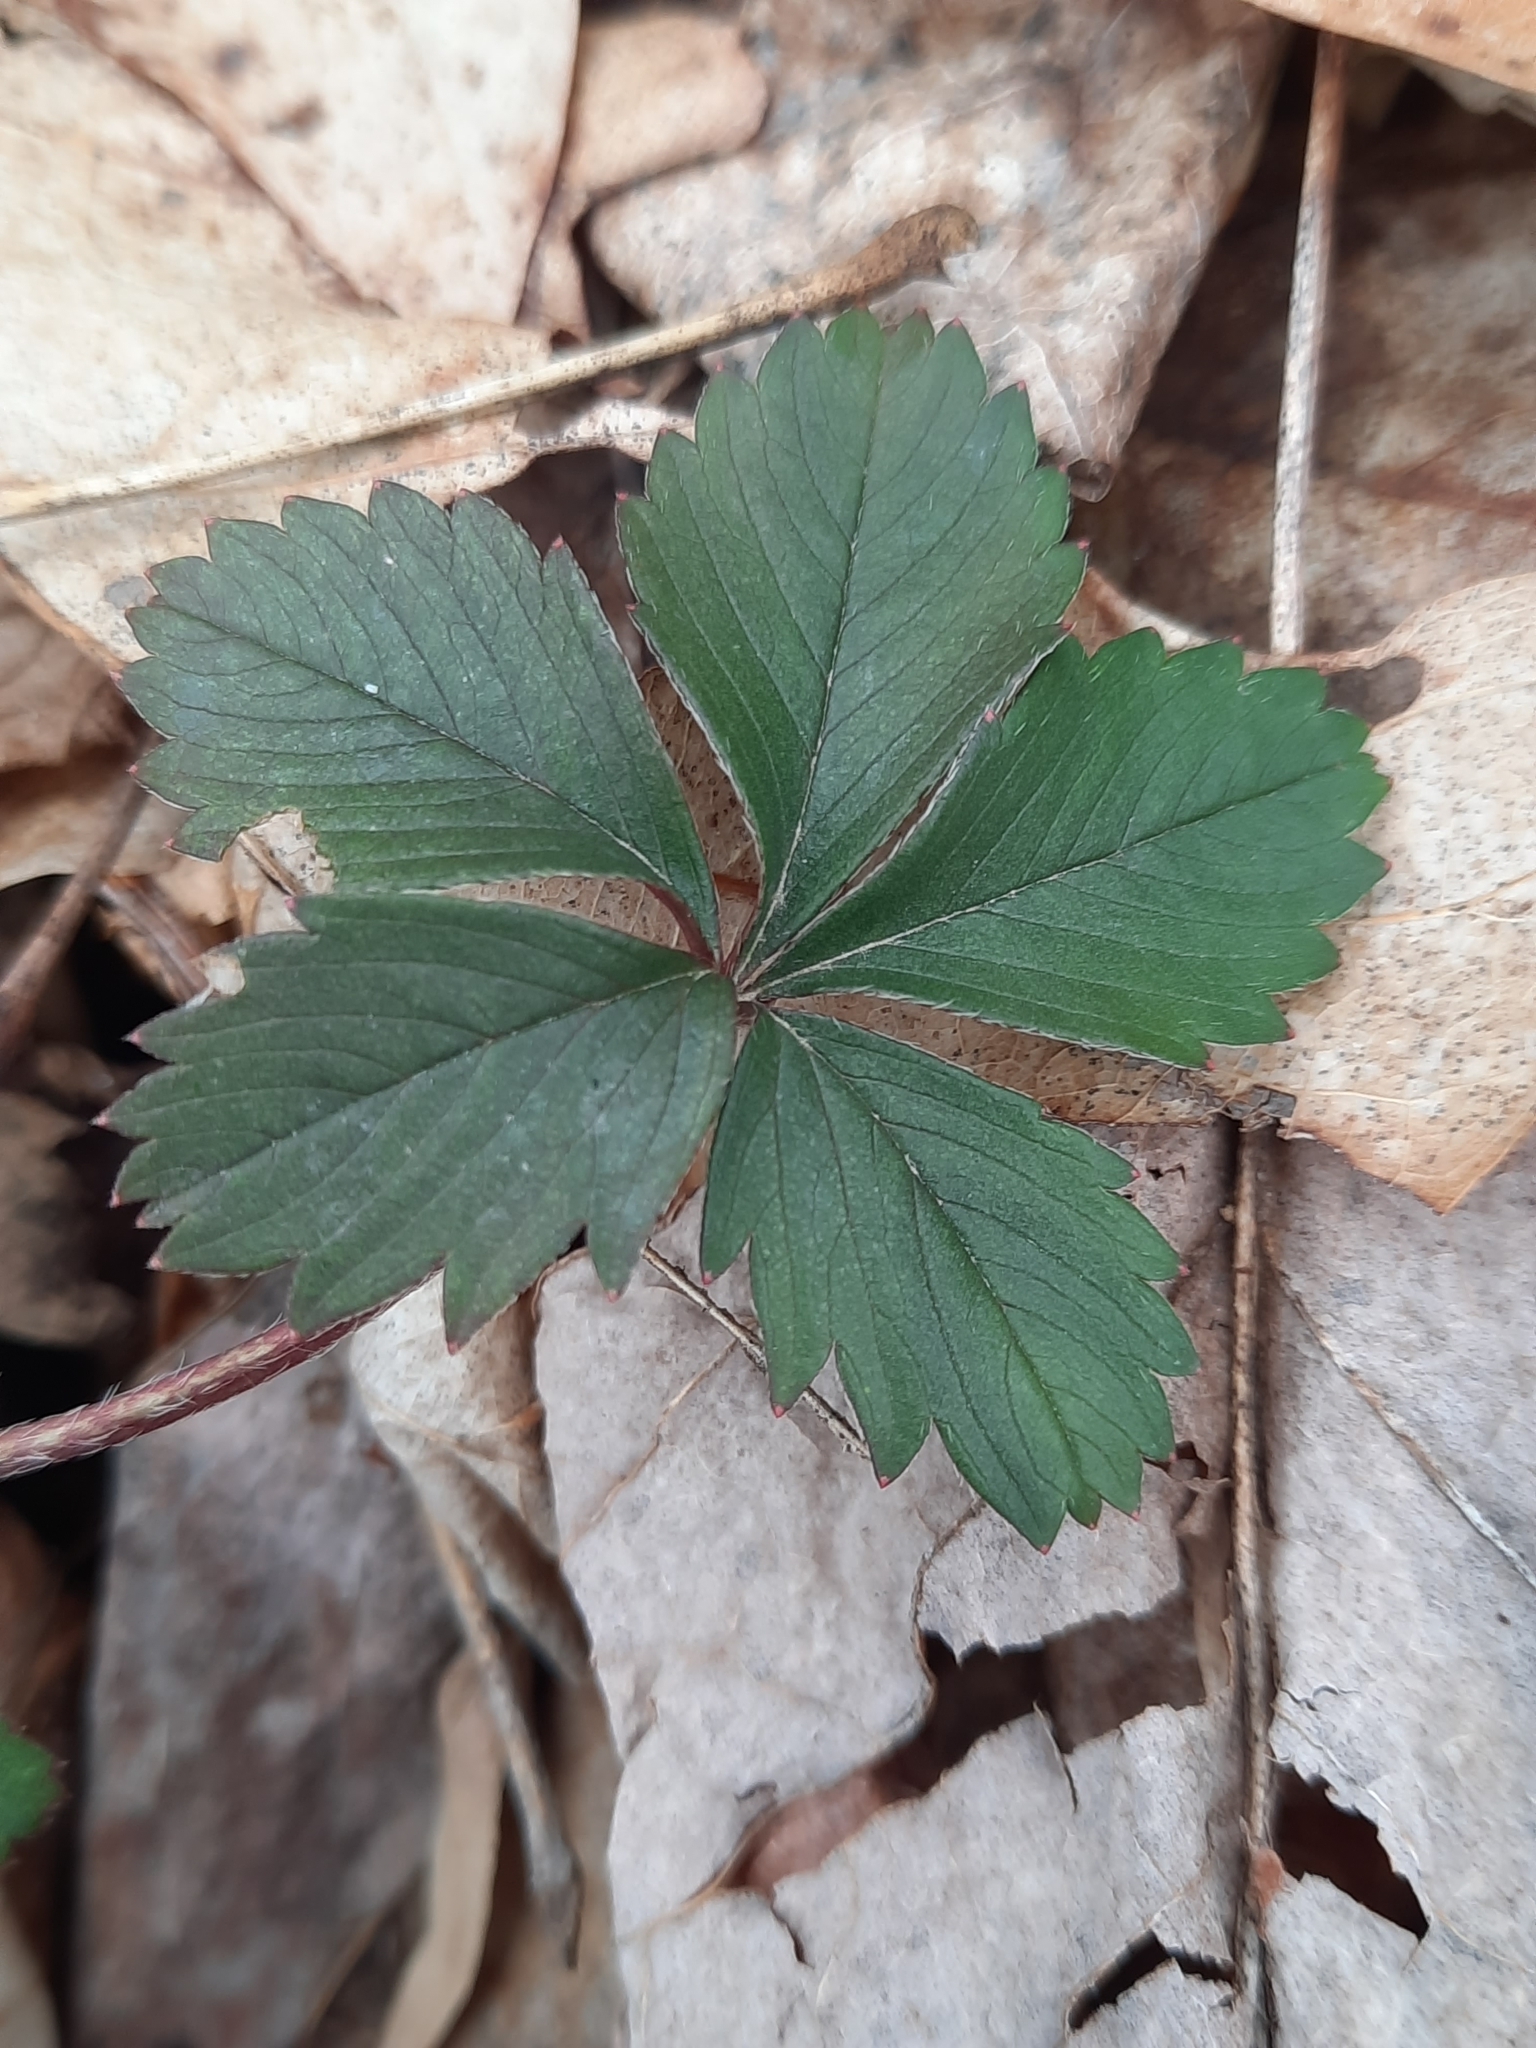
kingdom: Plantae
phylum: Tracheophyta
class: Magnoliopsida
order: Rosales
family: Rosaceae
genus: Potentilla
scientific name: Potentilla simplex
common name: Old field cinquefoil
